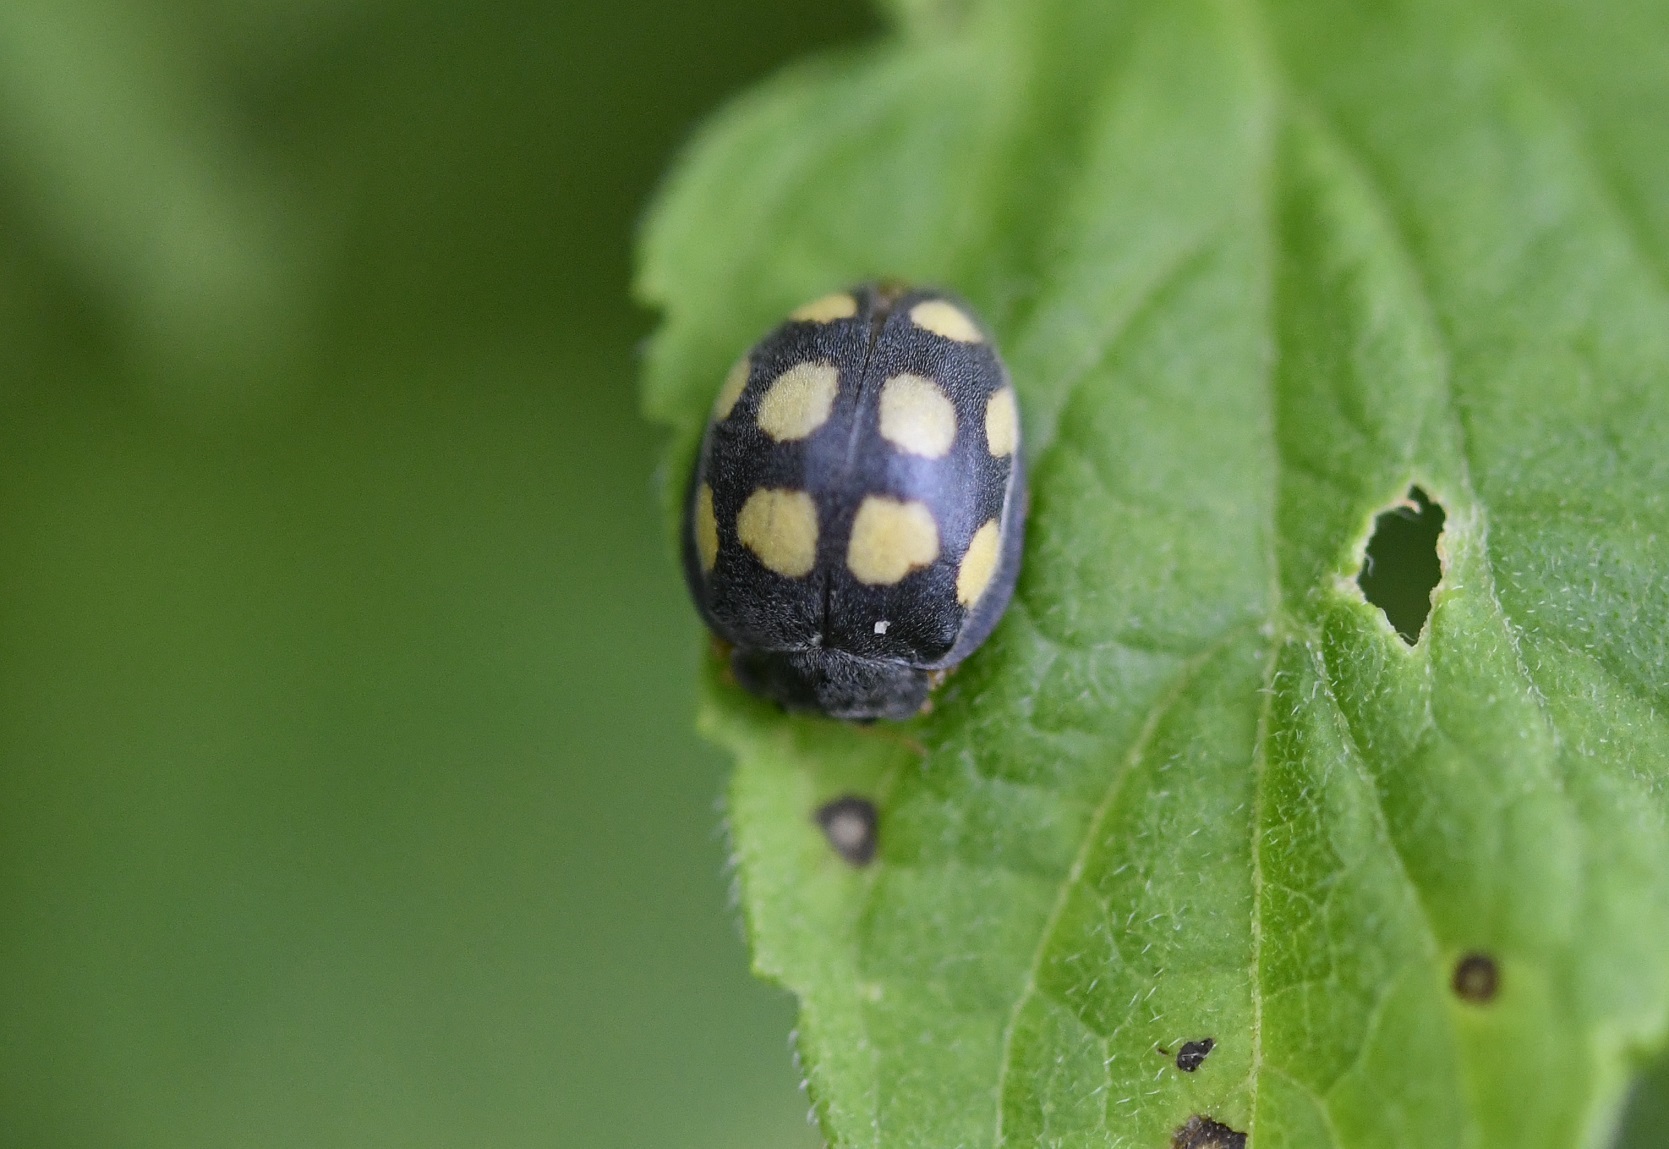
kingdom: Animalia
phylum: Arthropoda
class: Insecta
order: Coleoptera
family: Coccinellidae
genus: Epilachna
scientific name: Epilachna
